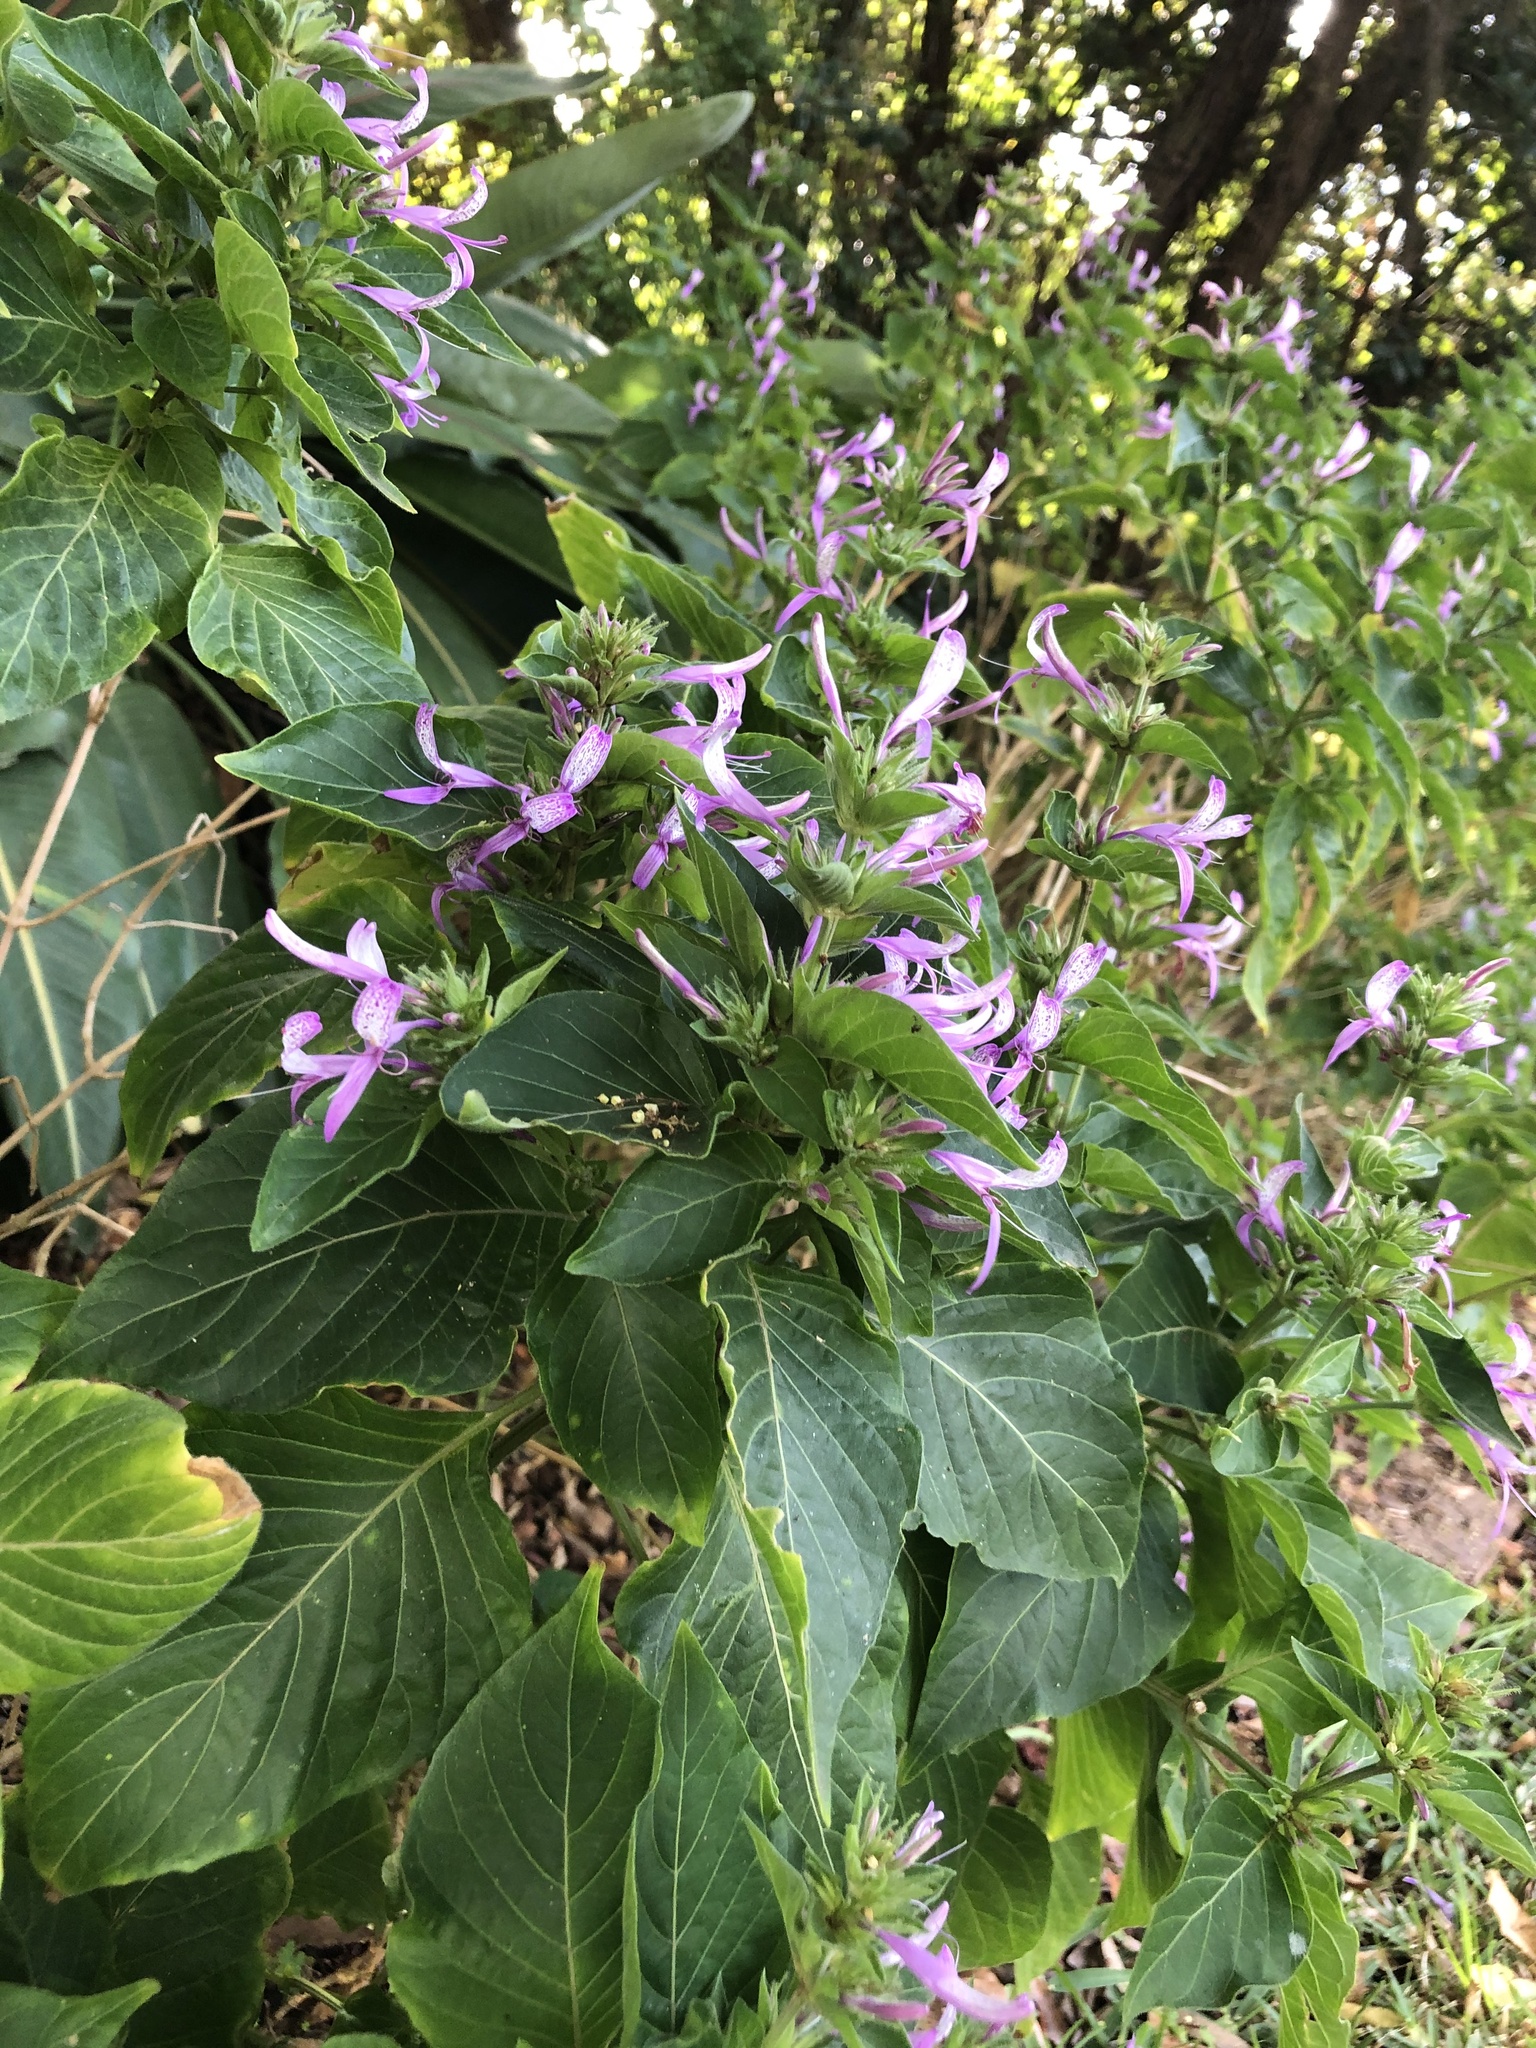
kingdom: Plantae
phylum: Tracheophyta
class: Magnoliopsida
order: Lamiales
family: Acanthaceae
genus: Hypoestes
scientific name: Hypoestes aristata
